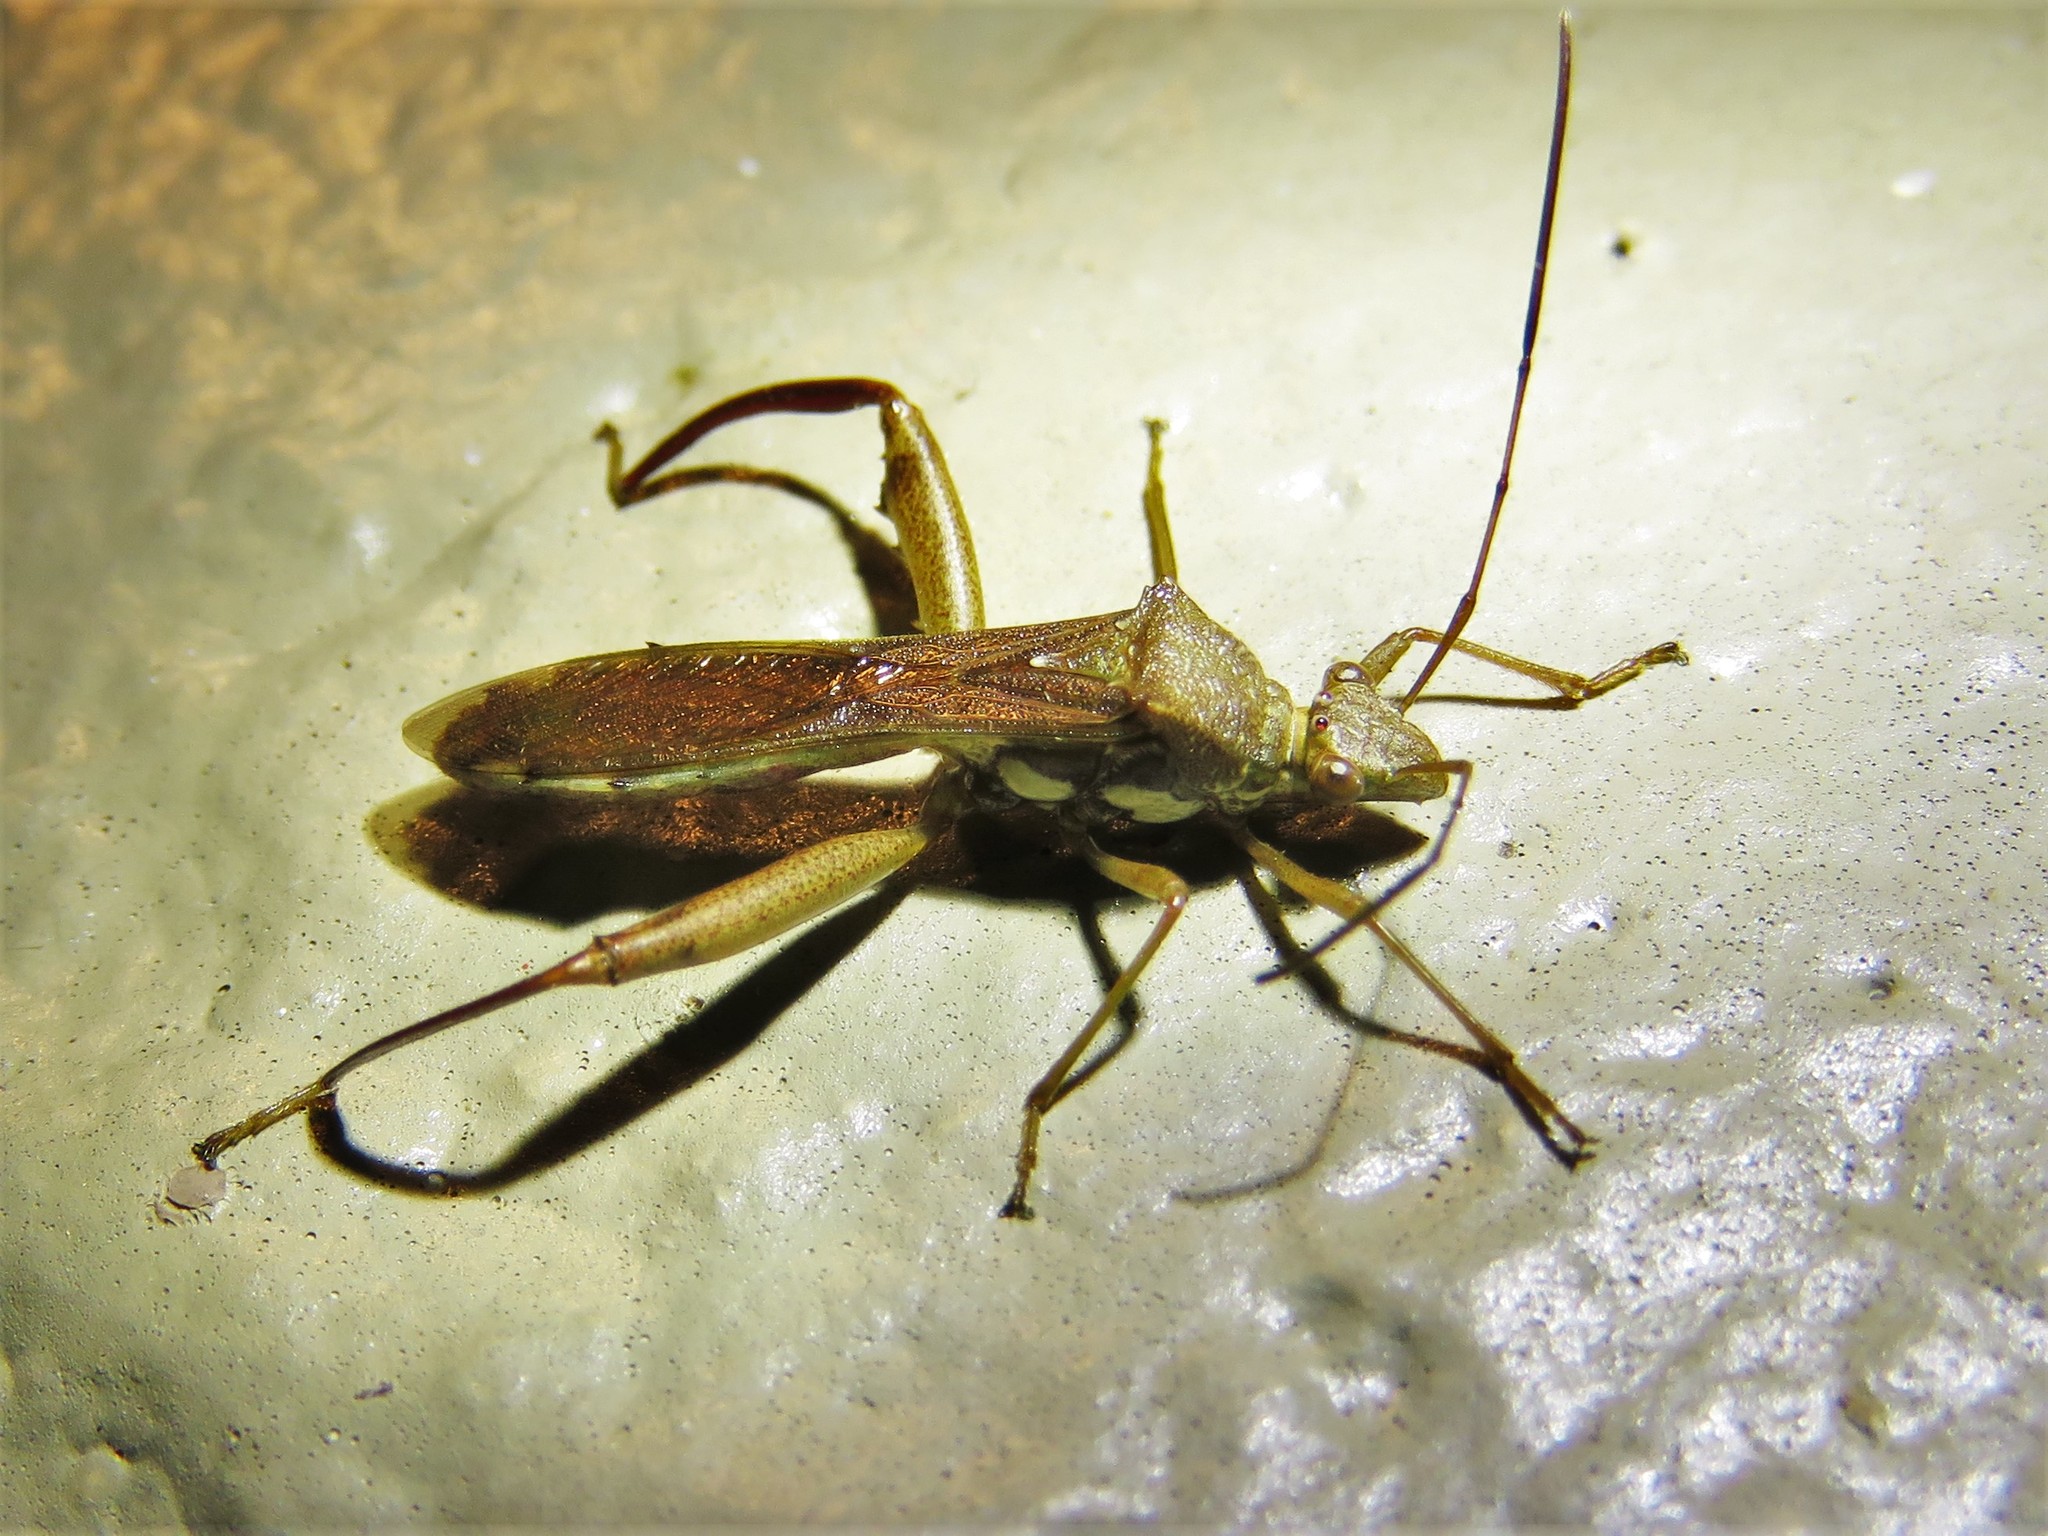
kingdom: Animalia
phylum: Arthropoda
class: Insecta
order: Hemiptera
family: Alydidae
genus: Hyalymenus
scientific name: Hyalymenus tarsatus
